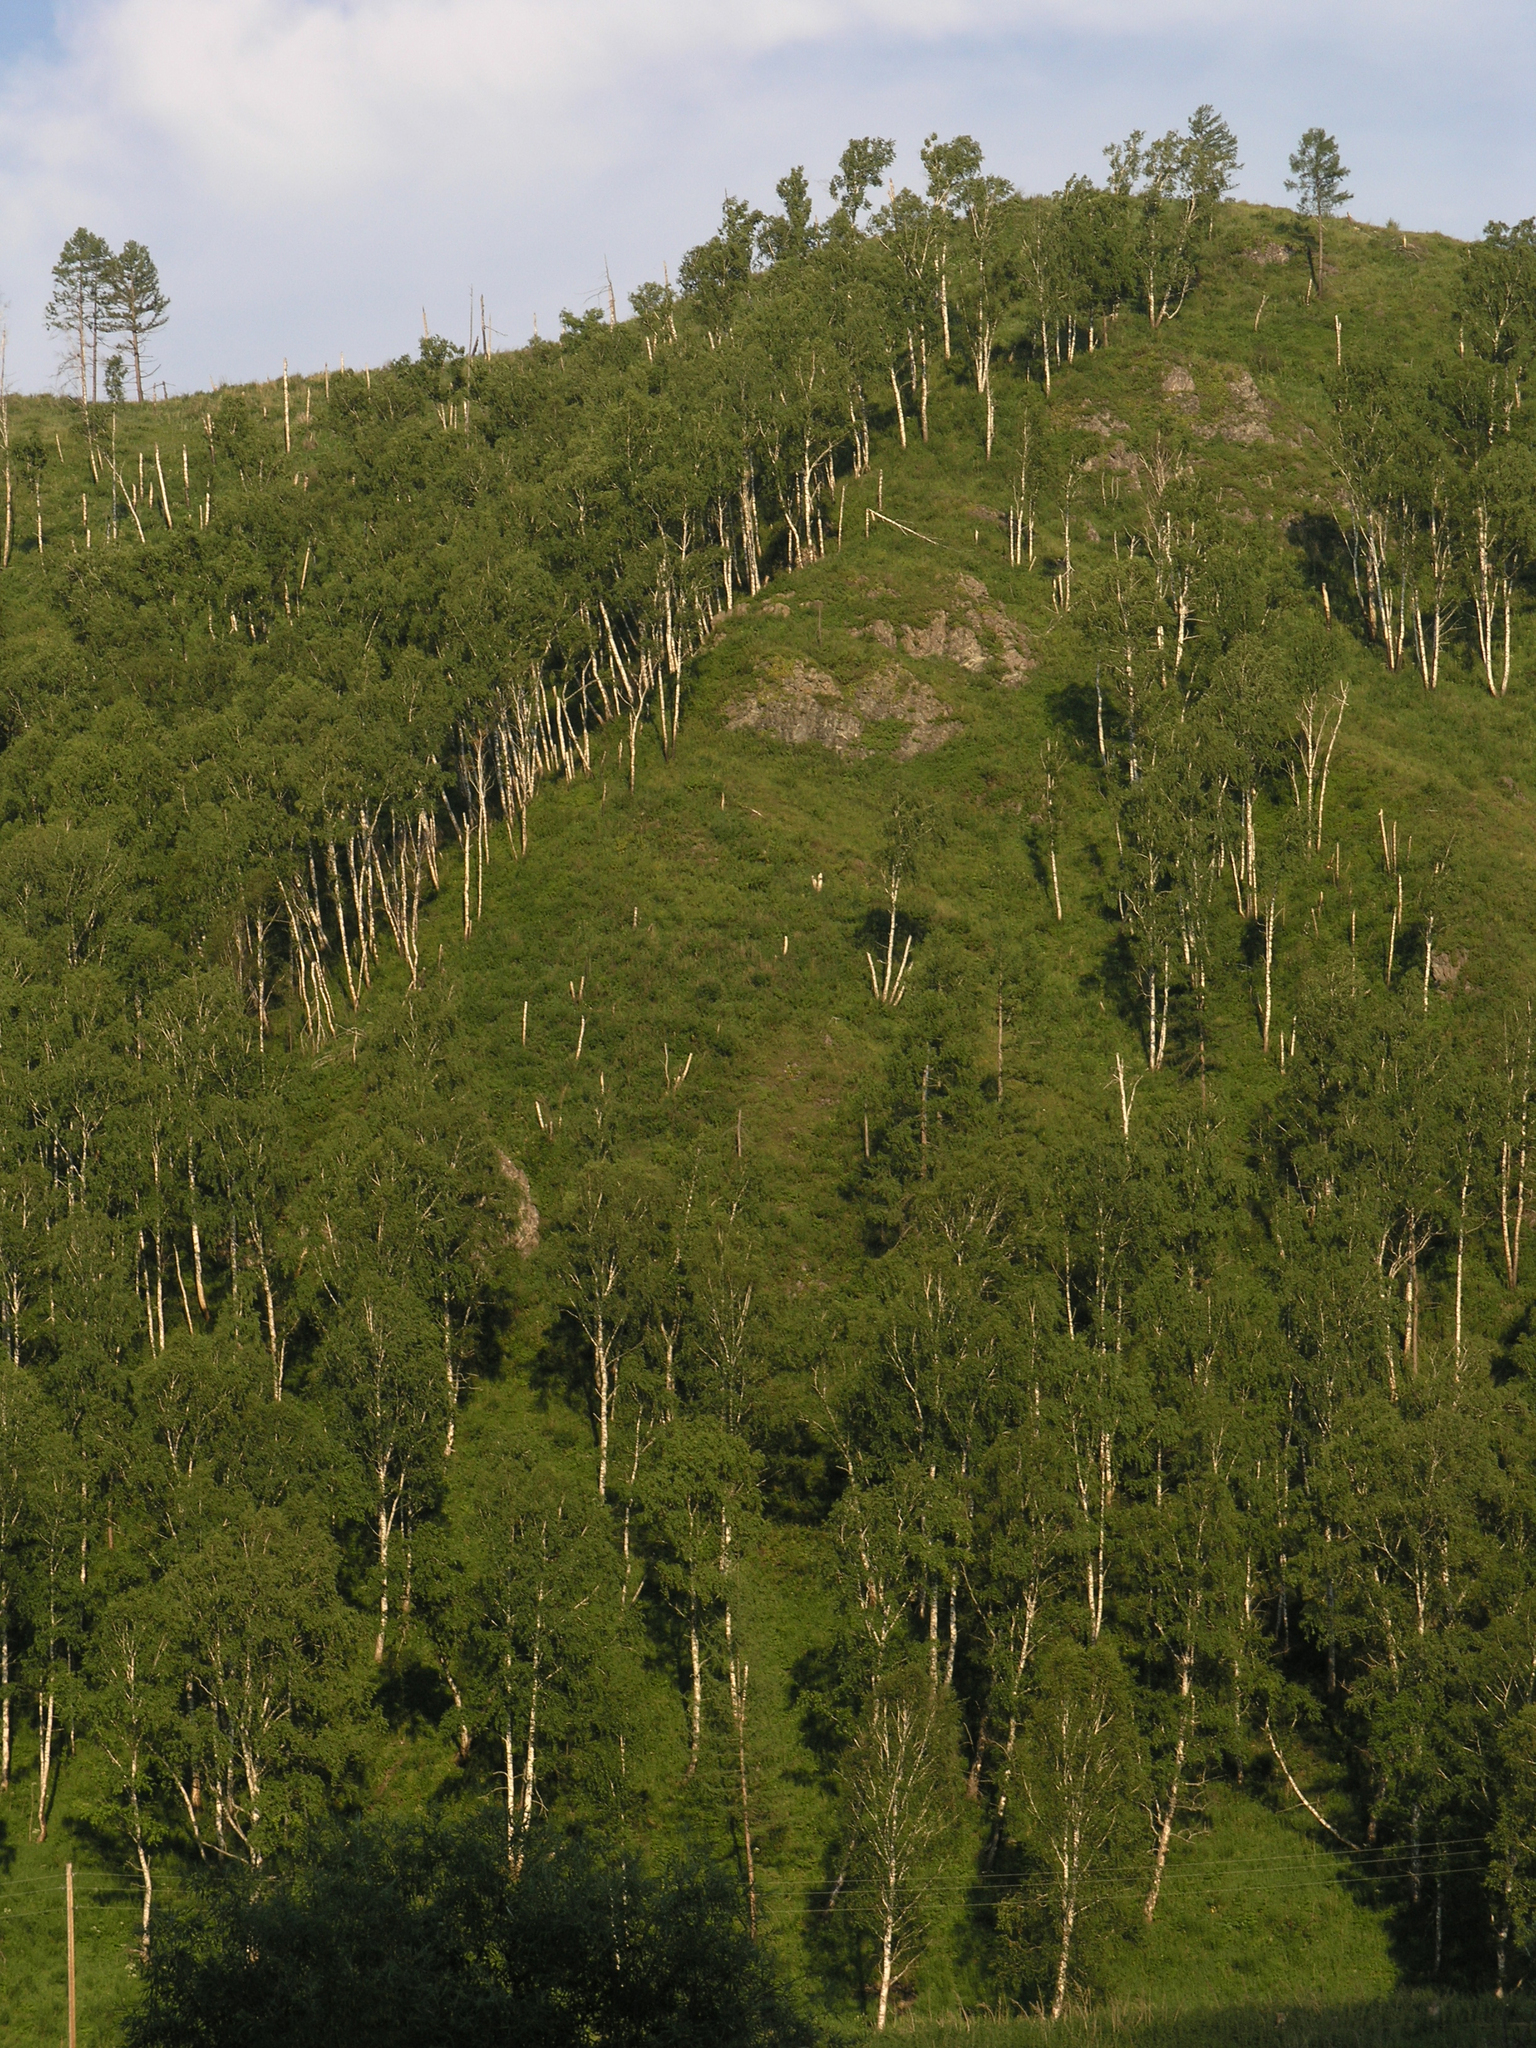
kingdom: Plantae
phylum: Tracheophyta
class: Magnoliopsida
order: Fagales
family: Betulaceae
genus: Betula
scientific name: Betula pendula
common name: Silver birch
